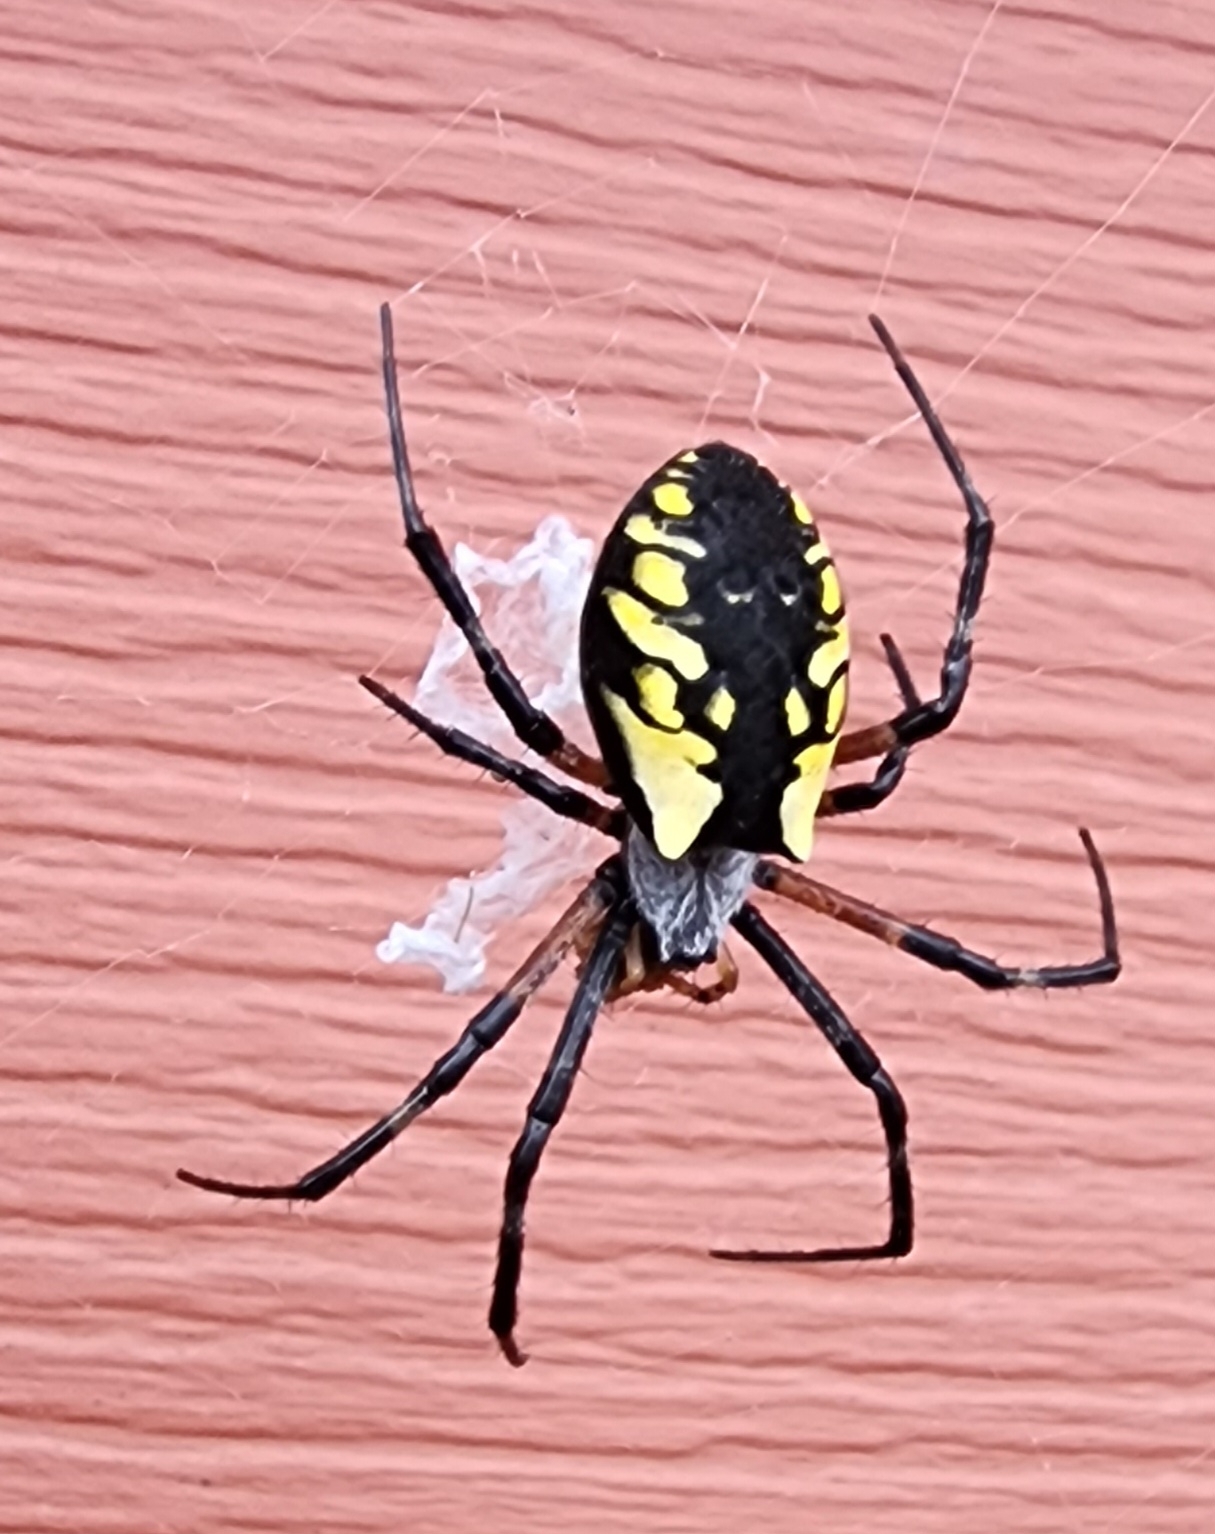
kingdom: Animalia
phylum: Arthropoda
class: Arachnida
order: Araneae
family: Araneidae
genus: Argiope
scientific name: Argiope aurantia
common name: Orb weavers
